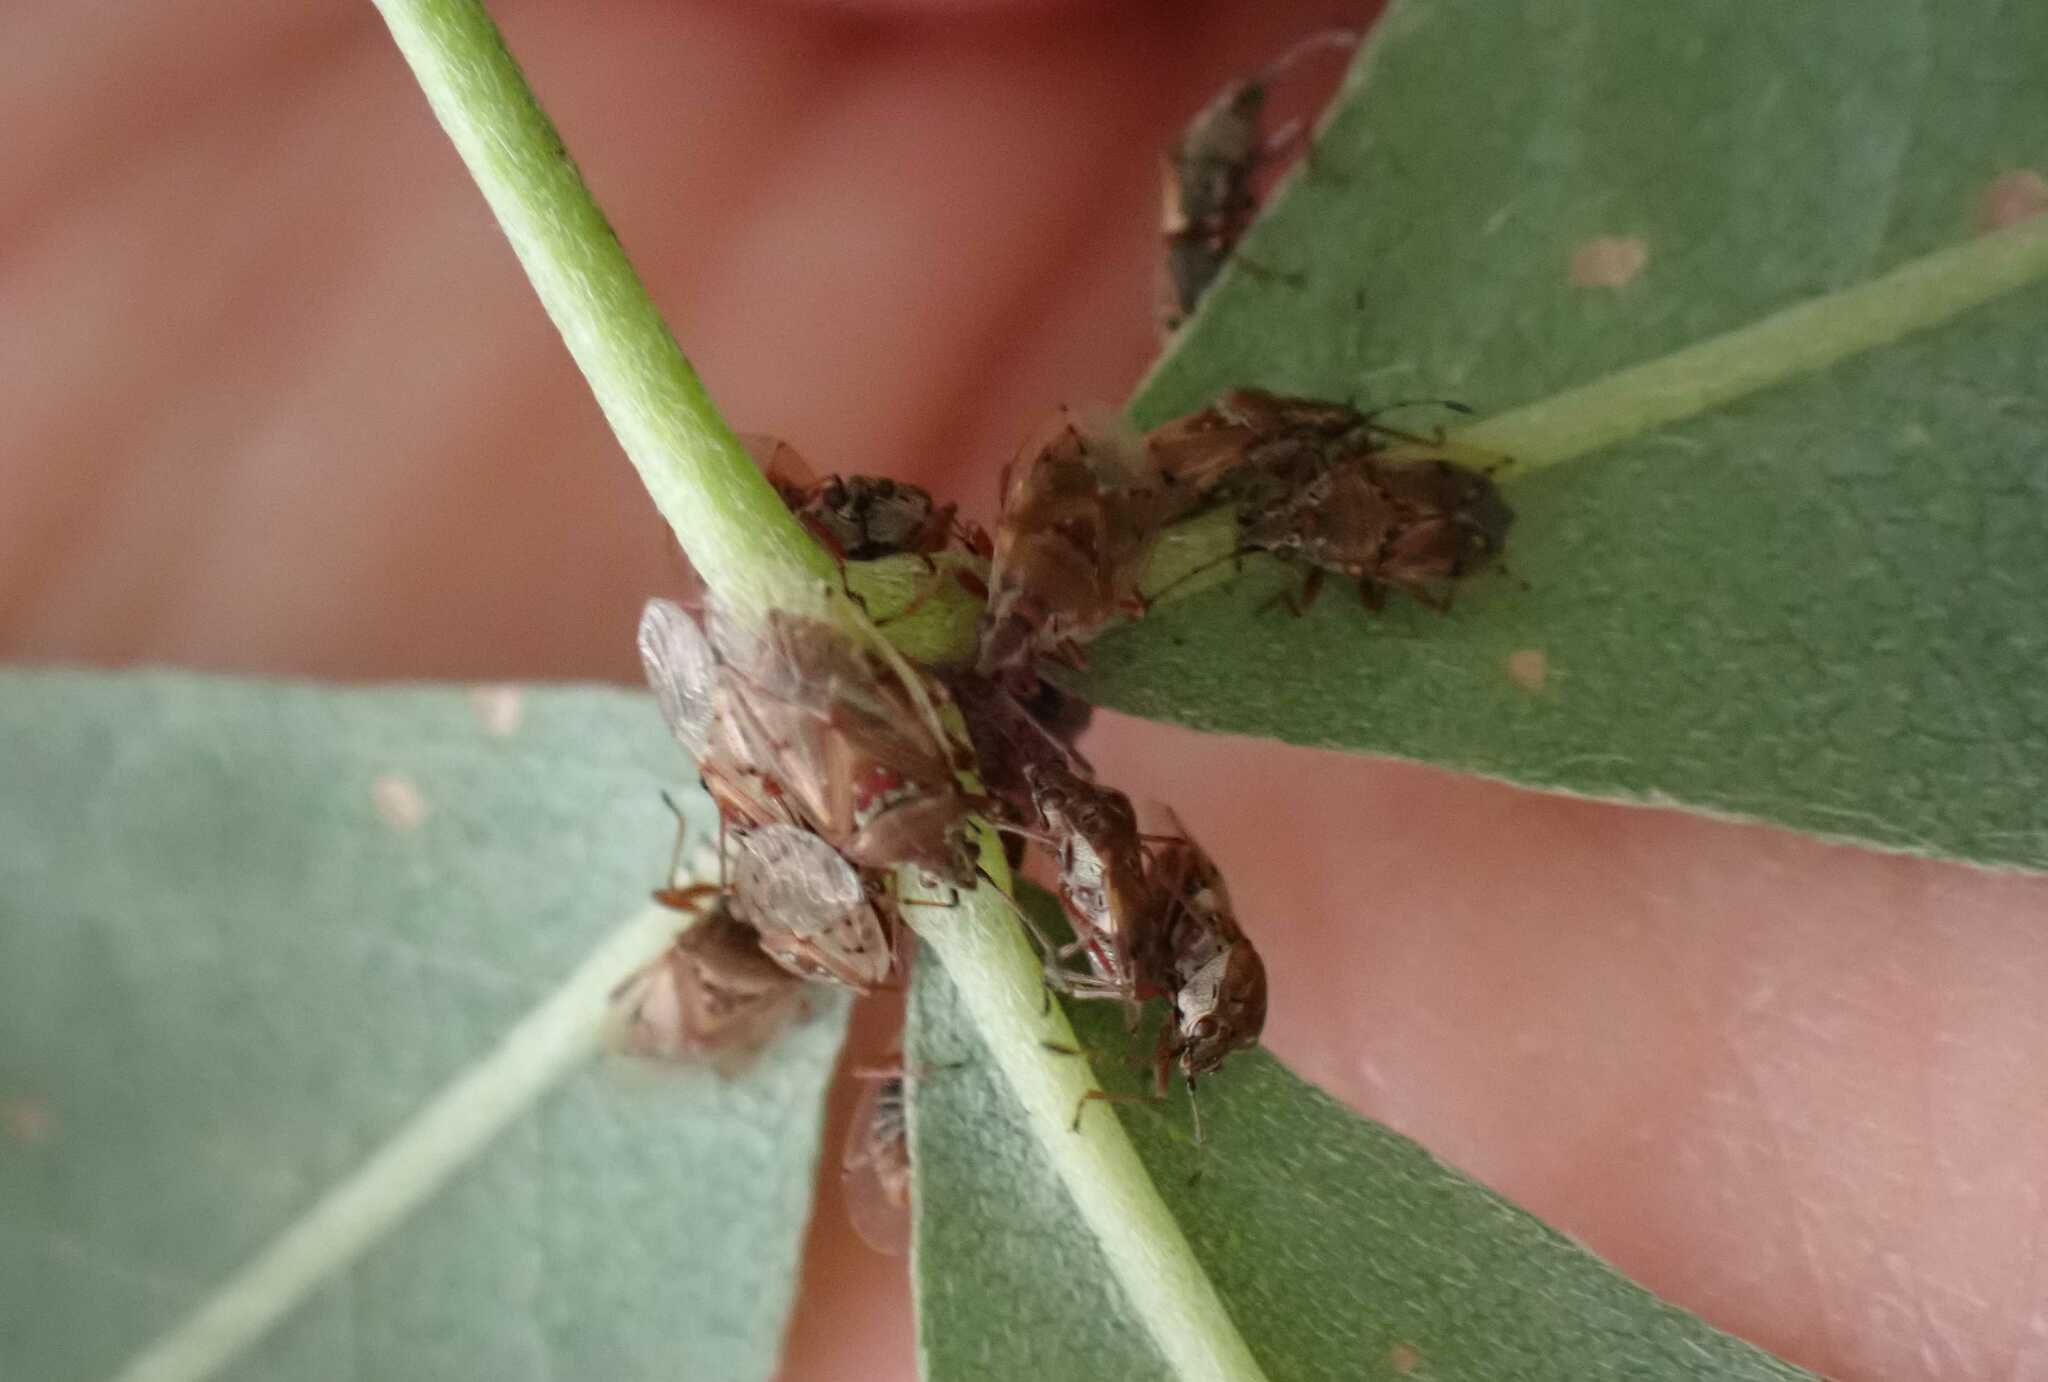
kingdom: Animalia
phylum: Arthropoda
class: Insecta
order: Hemiptera
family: Lygaeidae
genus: Kleidocerys
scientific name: Kleidocerys resedae
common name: Birch catkin bug
